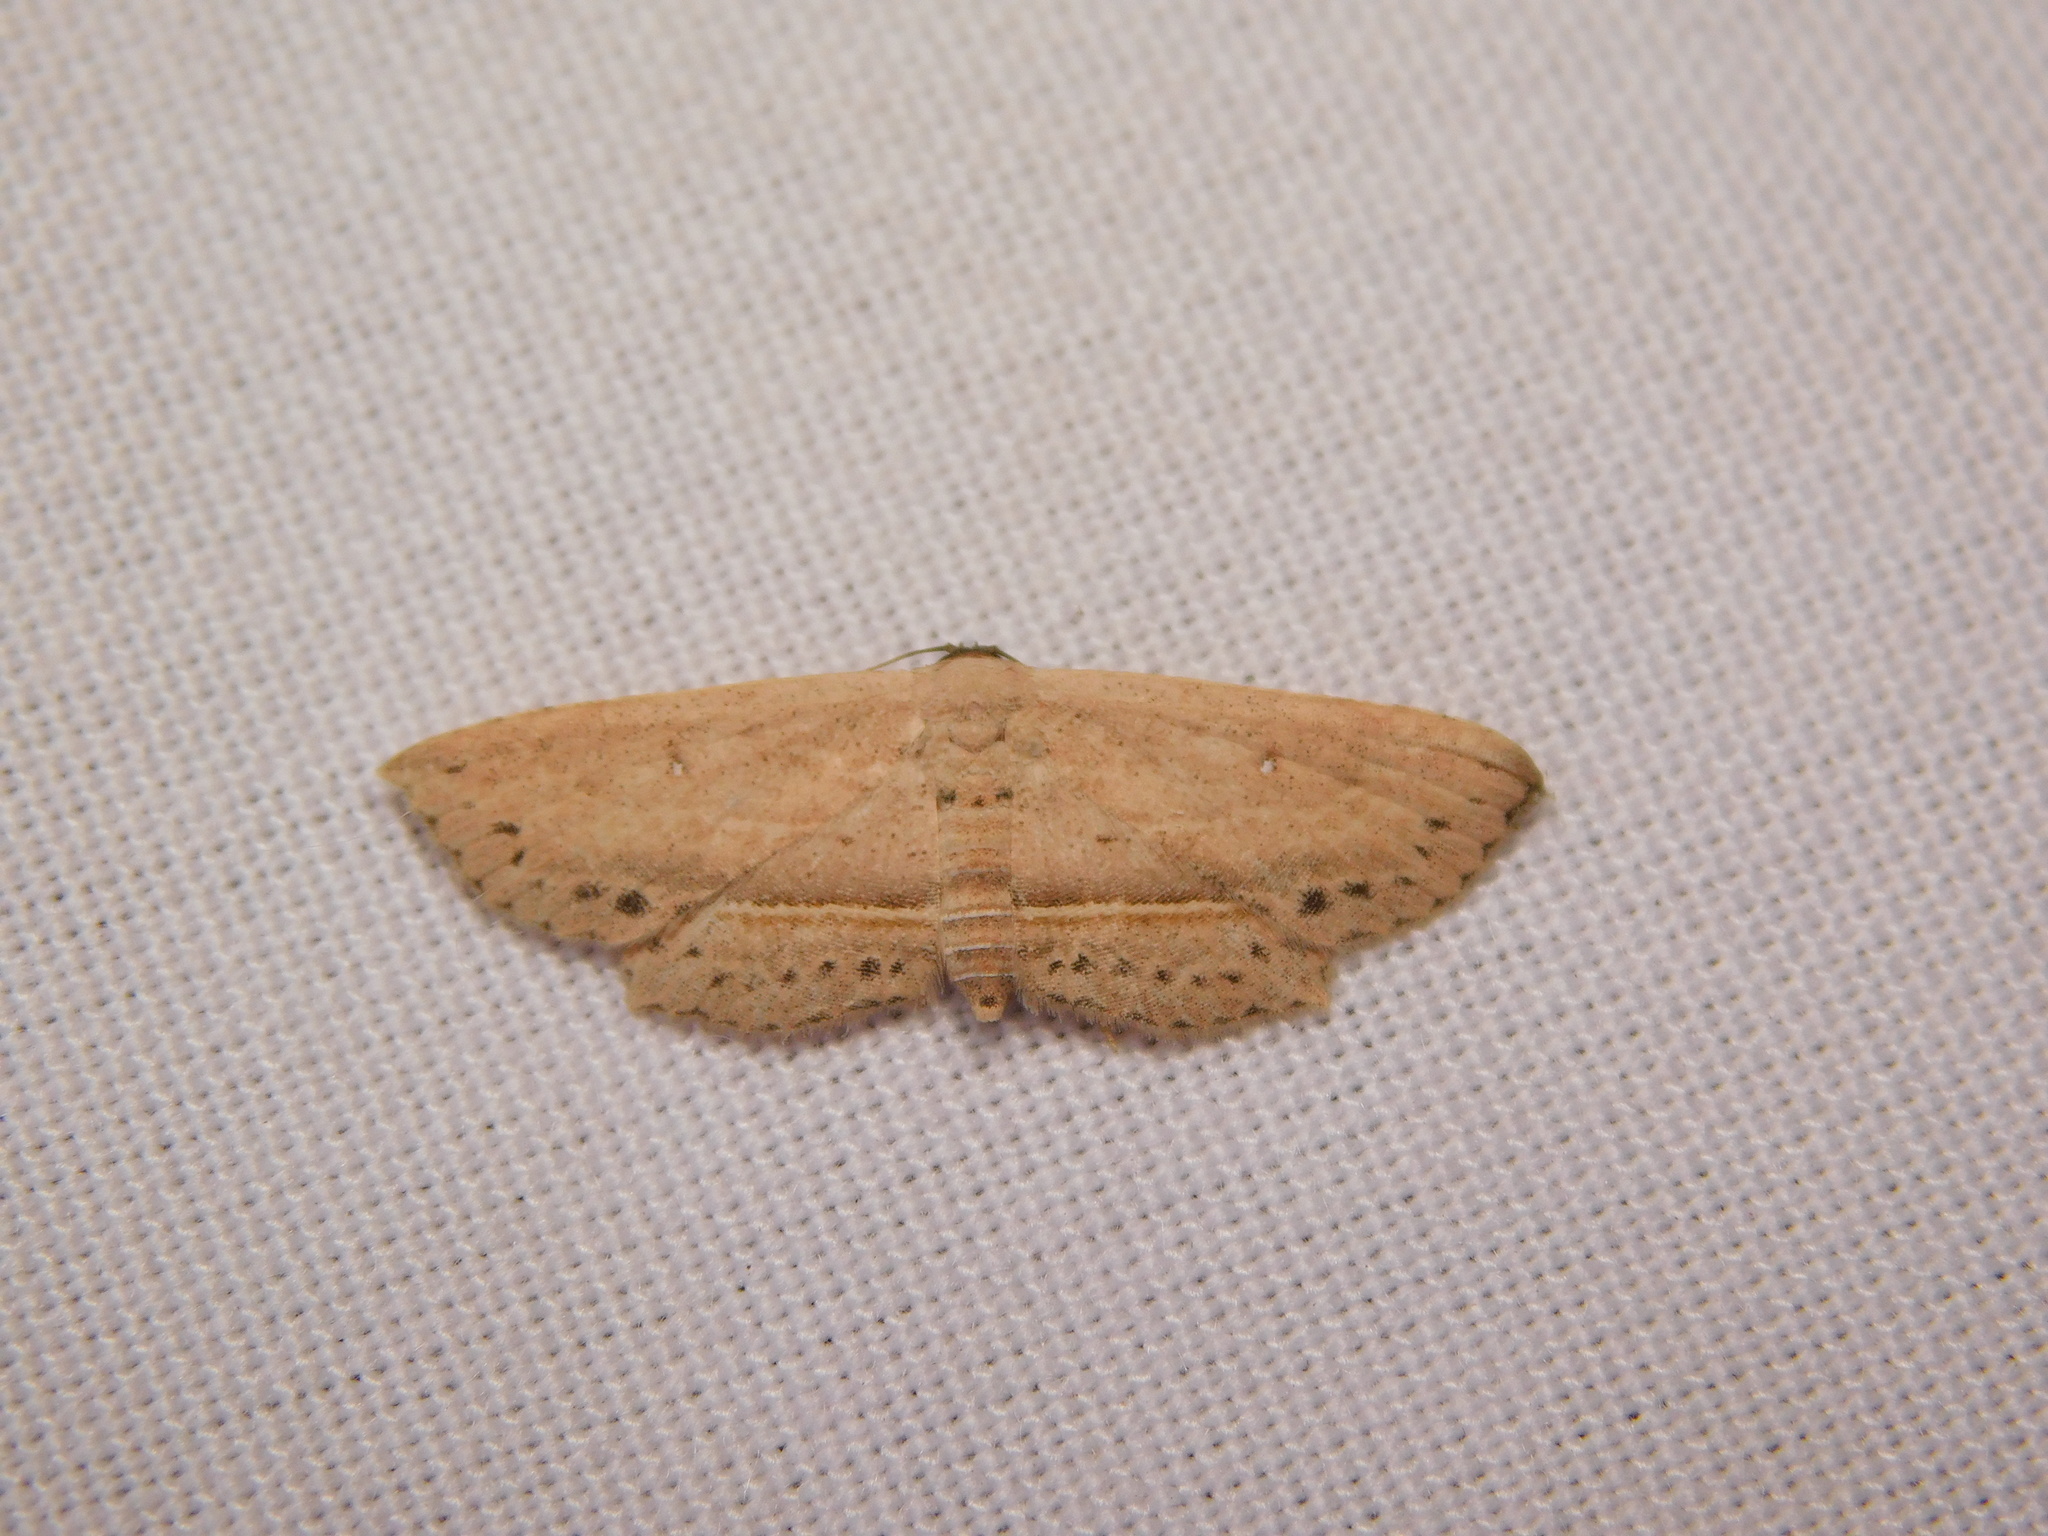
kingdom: Animalia
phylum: Arthropoda
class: Insecta
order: Lepidoptera
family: Noctuidae
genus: Hyposada
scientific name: Hyposada hydrocampata
